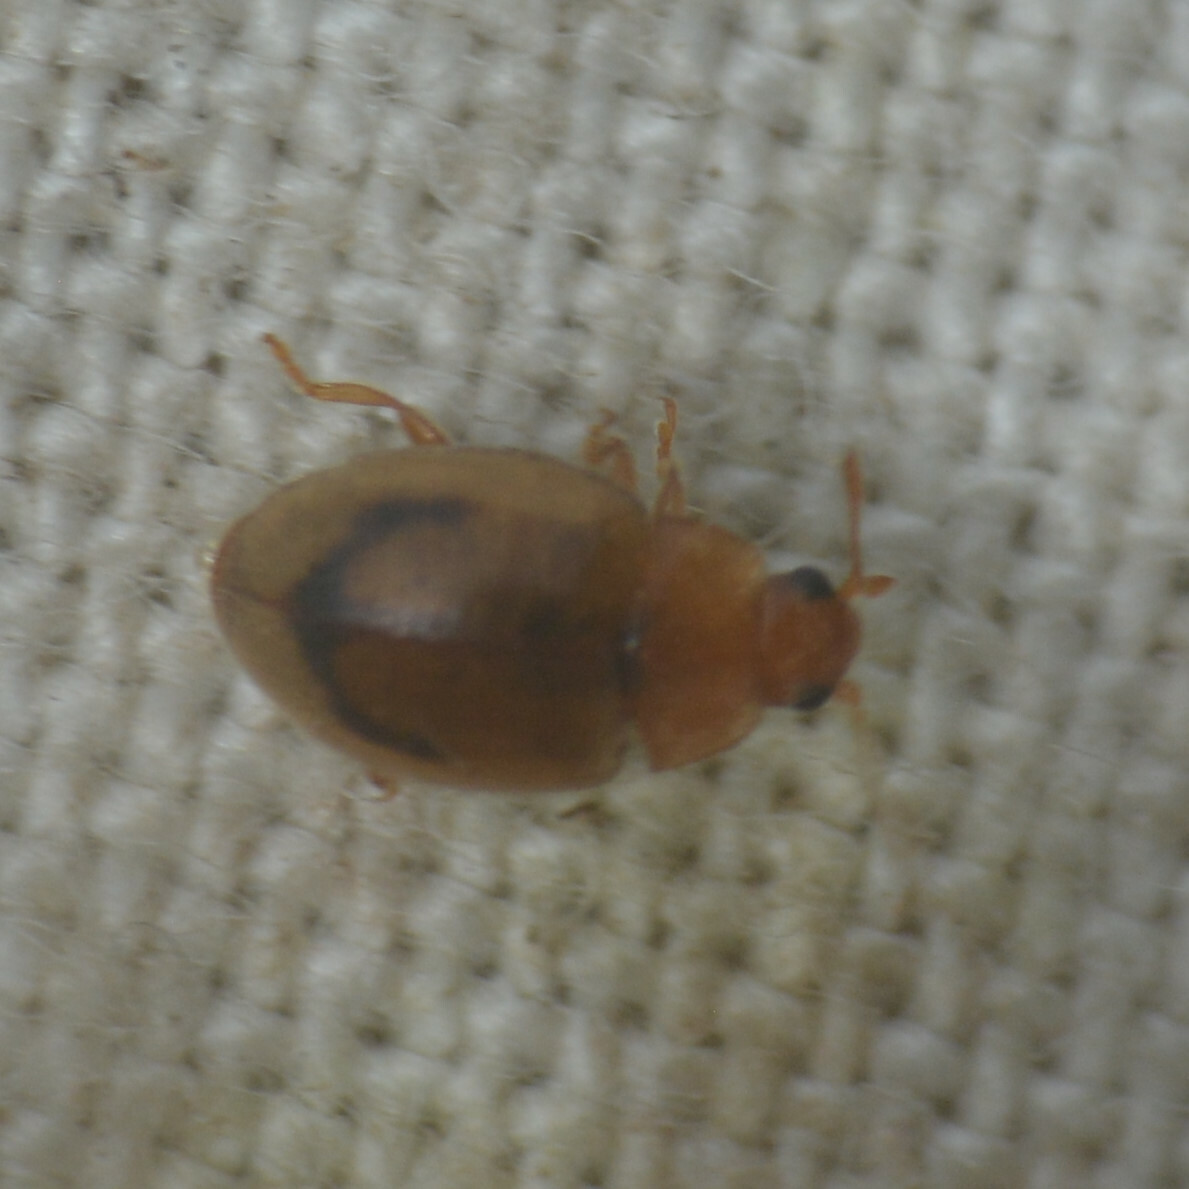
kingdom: Animalia
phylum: Arthropoda
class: Insecta
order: Coleoptera
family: Coccinellidae
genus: Rhyzobius
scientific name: Rhyzobius litura
